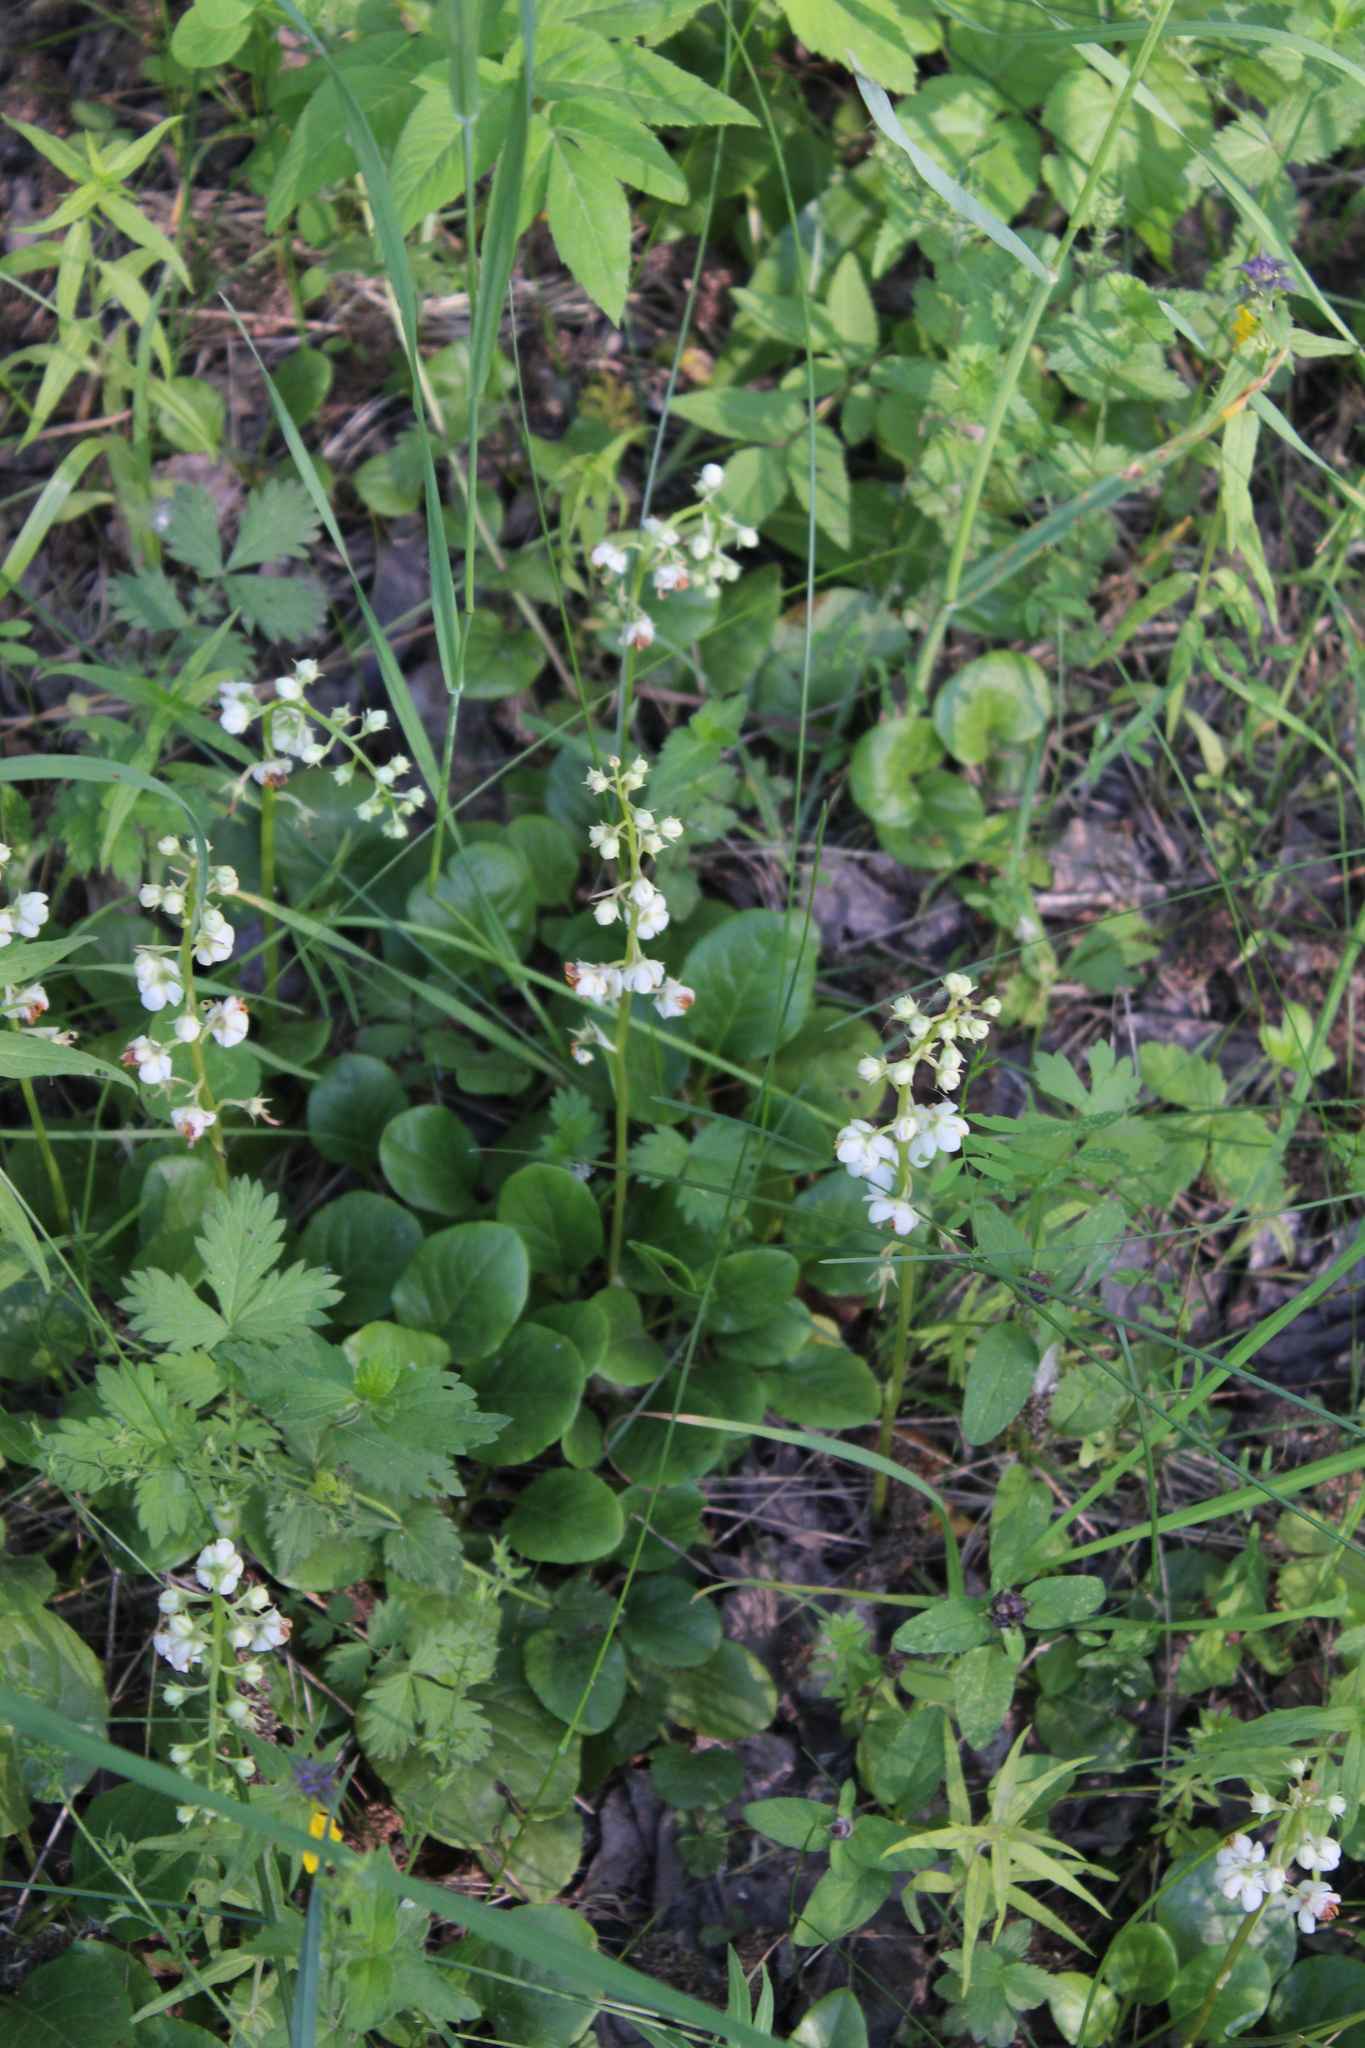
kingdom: Plantae
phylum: Tracheophyta
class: Magnoliopsida
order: Ericales
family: Ericaceae
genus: Pyrola
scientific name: Pyrola rotundifolia
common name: Round-leaved wintergreen
